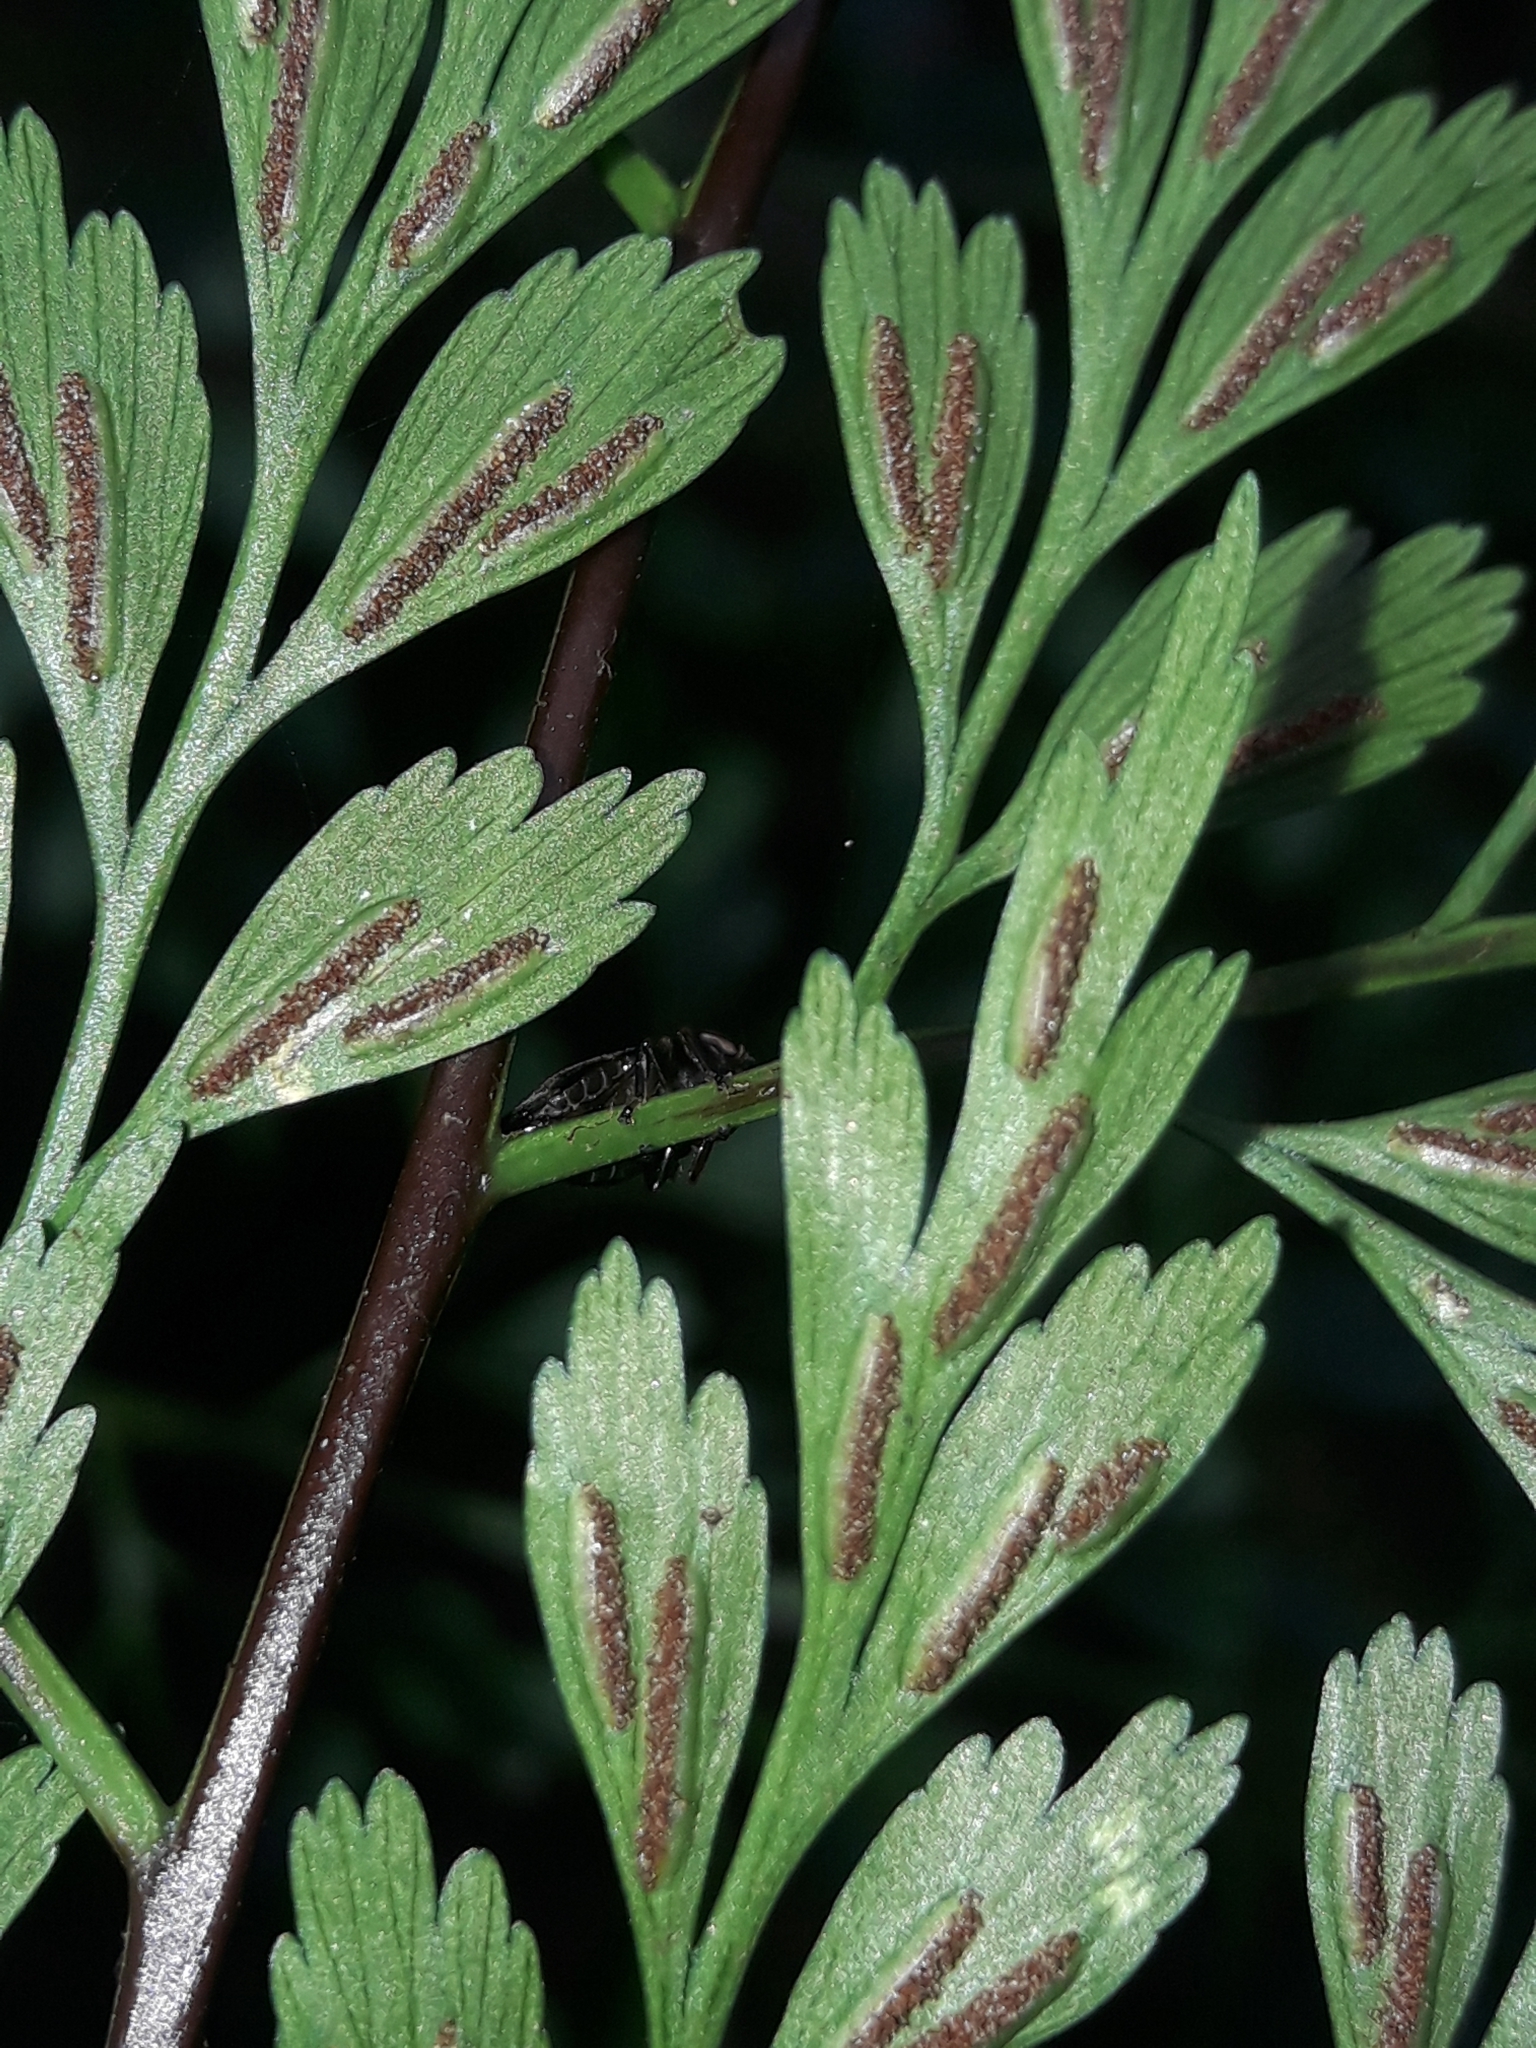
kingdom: Plantae
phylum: Tracheophyta
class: Polypodiopsida
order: Polypodiales
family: Aspleniaceae
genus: Asplenium
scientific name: Asplenium laserpitiifolium
